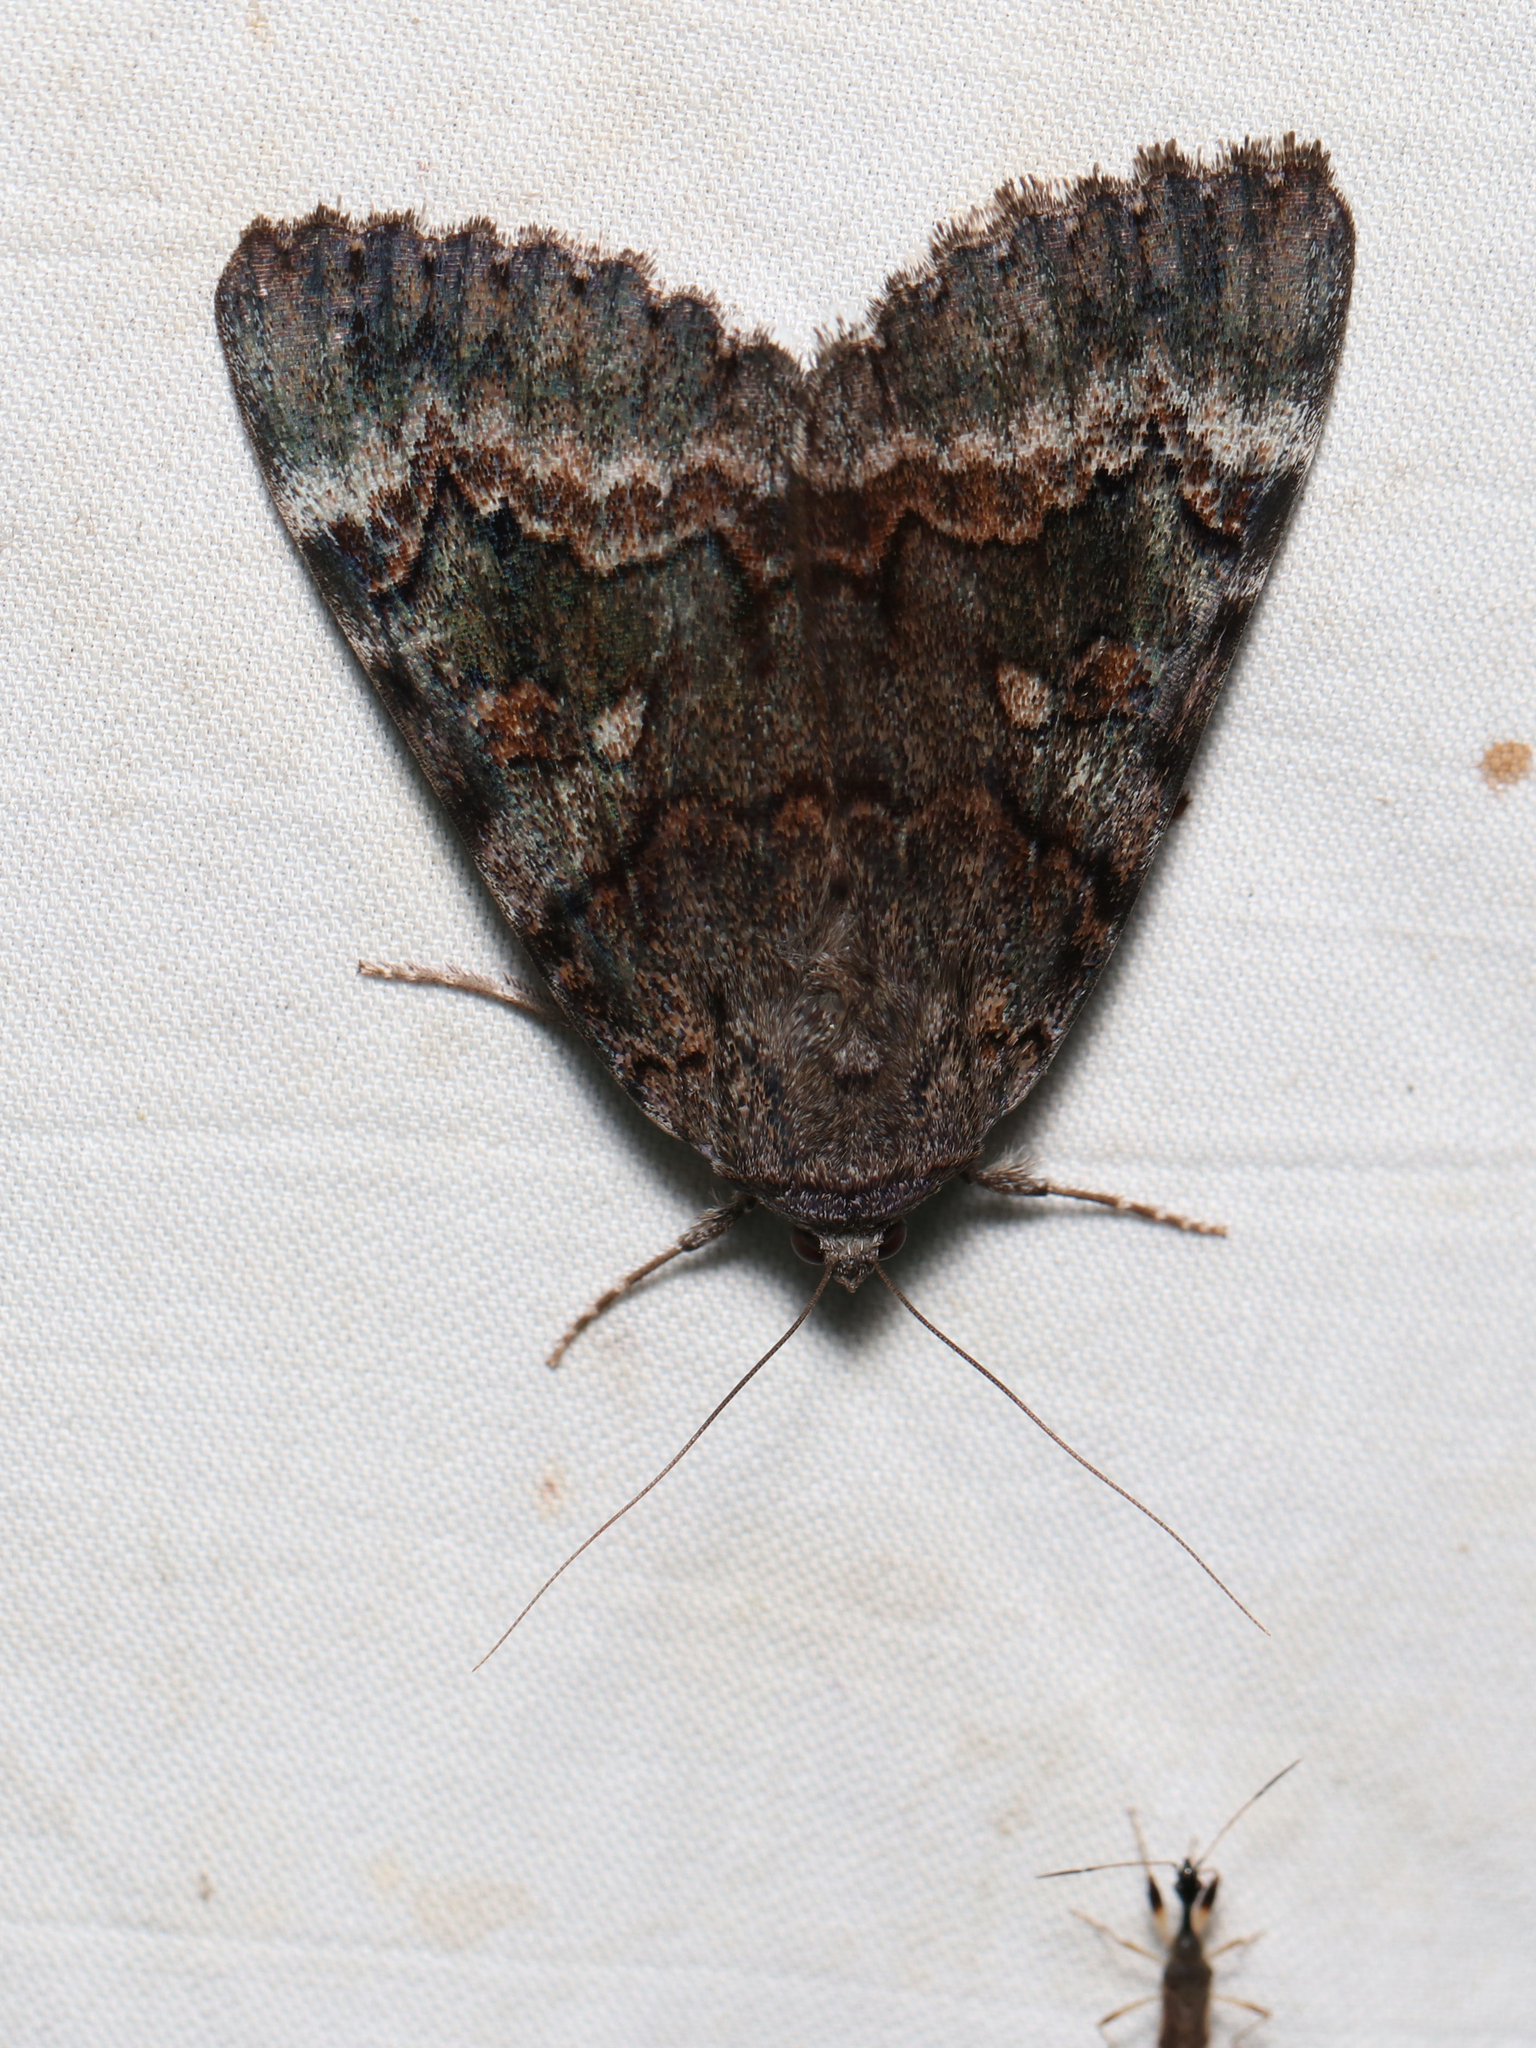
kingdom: Animalia
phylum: Arthropoda
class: Insecta
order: Lepidoptera
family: Erebidae
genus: Catocala
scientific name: Catocala epione
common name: Epione underwing
